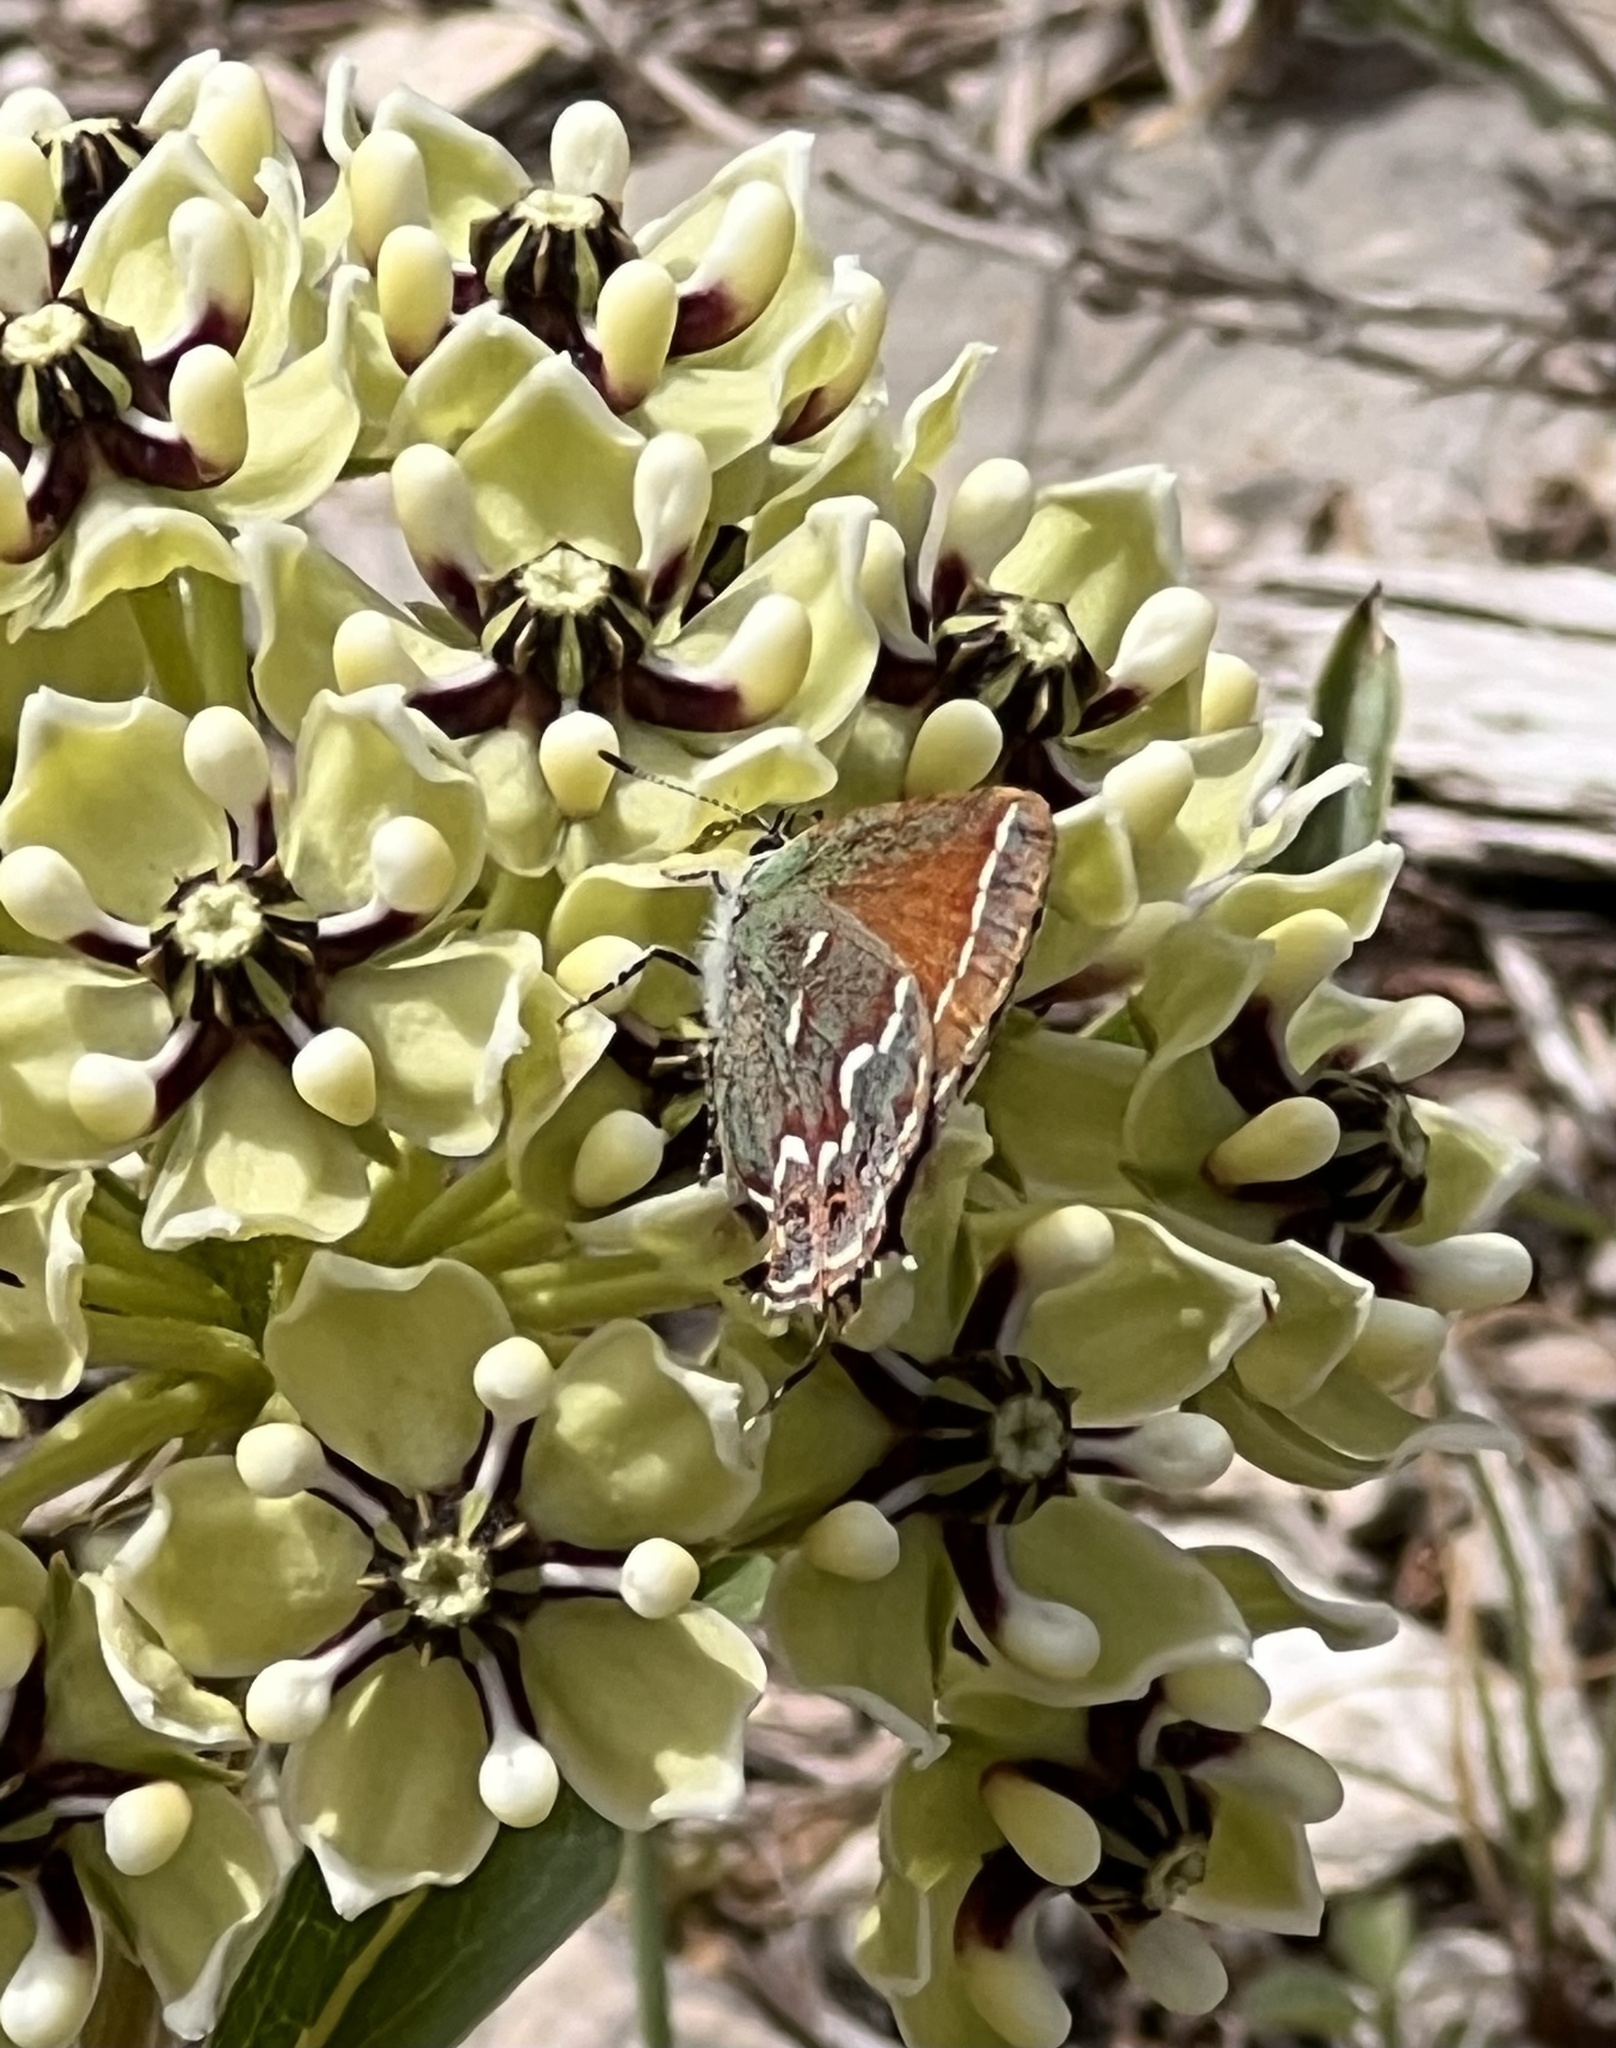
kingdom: Plantae
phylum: Tracheophyta
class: Magnoliopsida
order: Gentianales
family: Apocynaceae
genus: Asclepias
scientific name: Asclepias asperula
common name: Antelope horns
